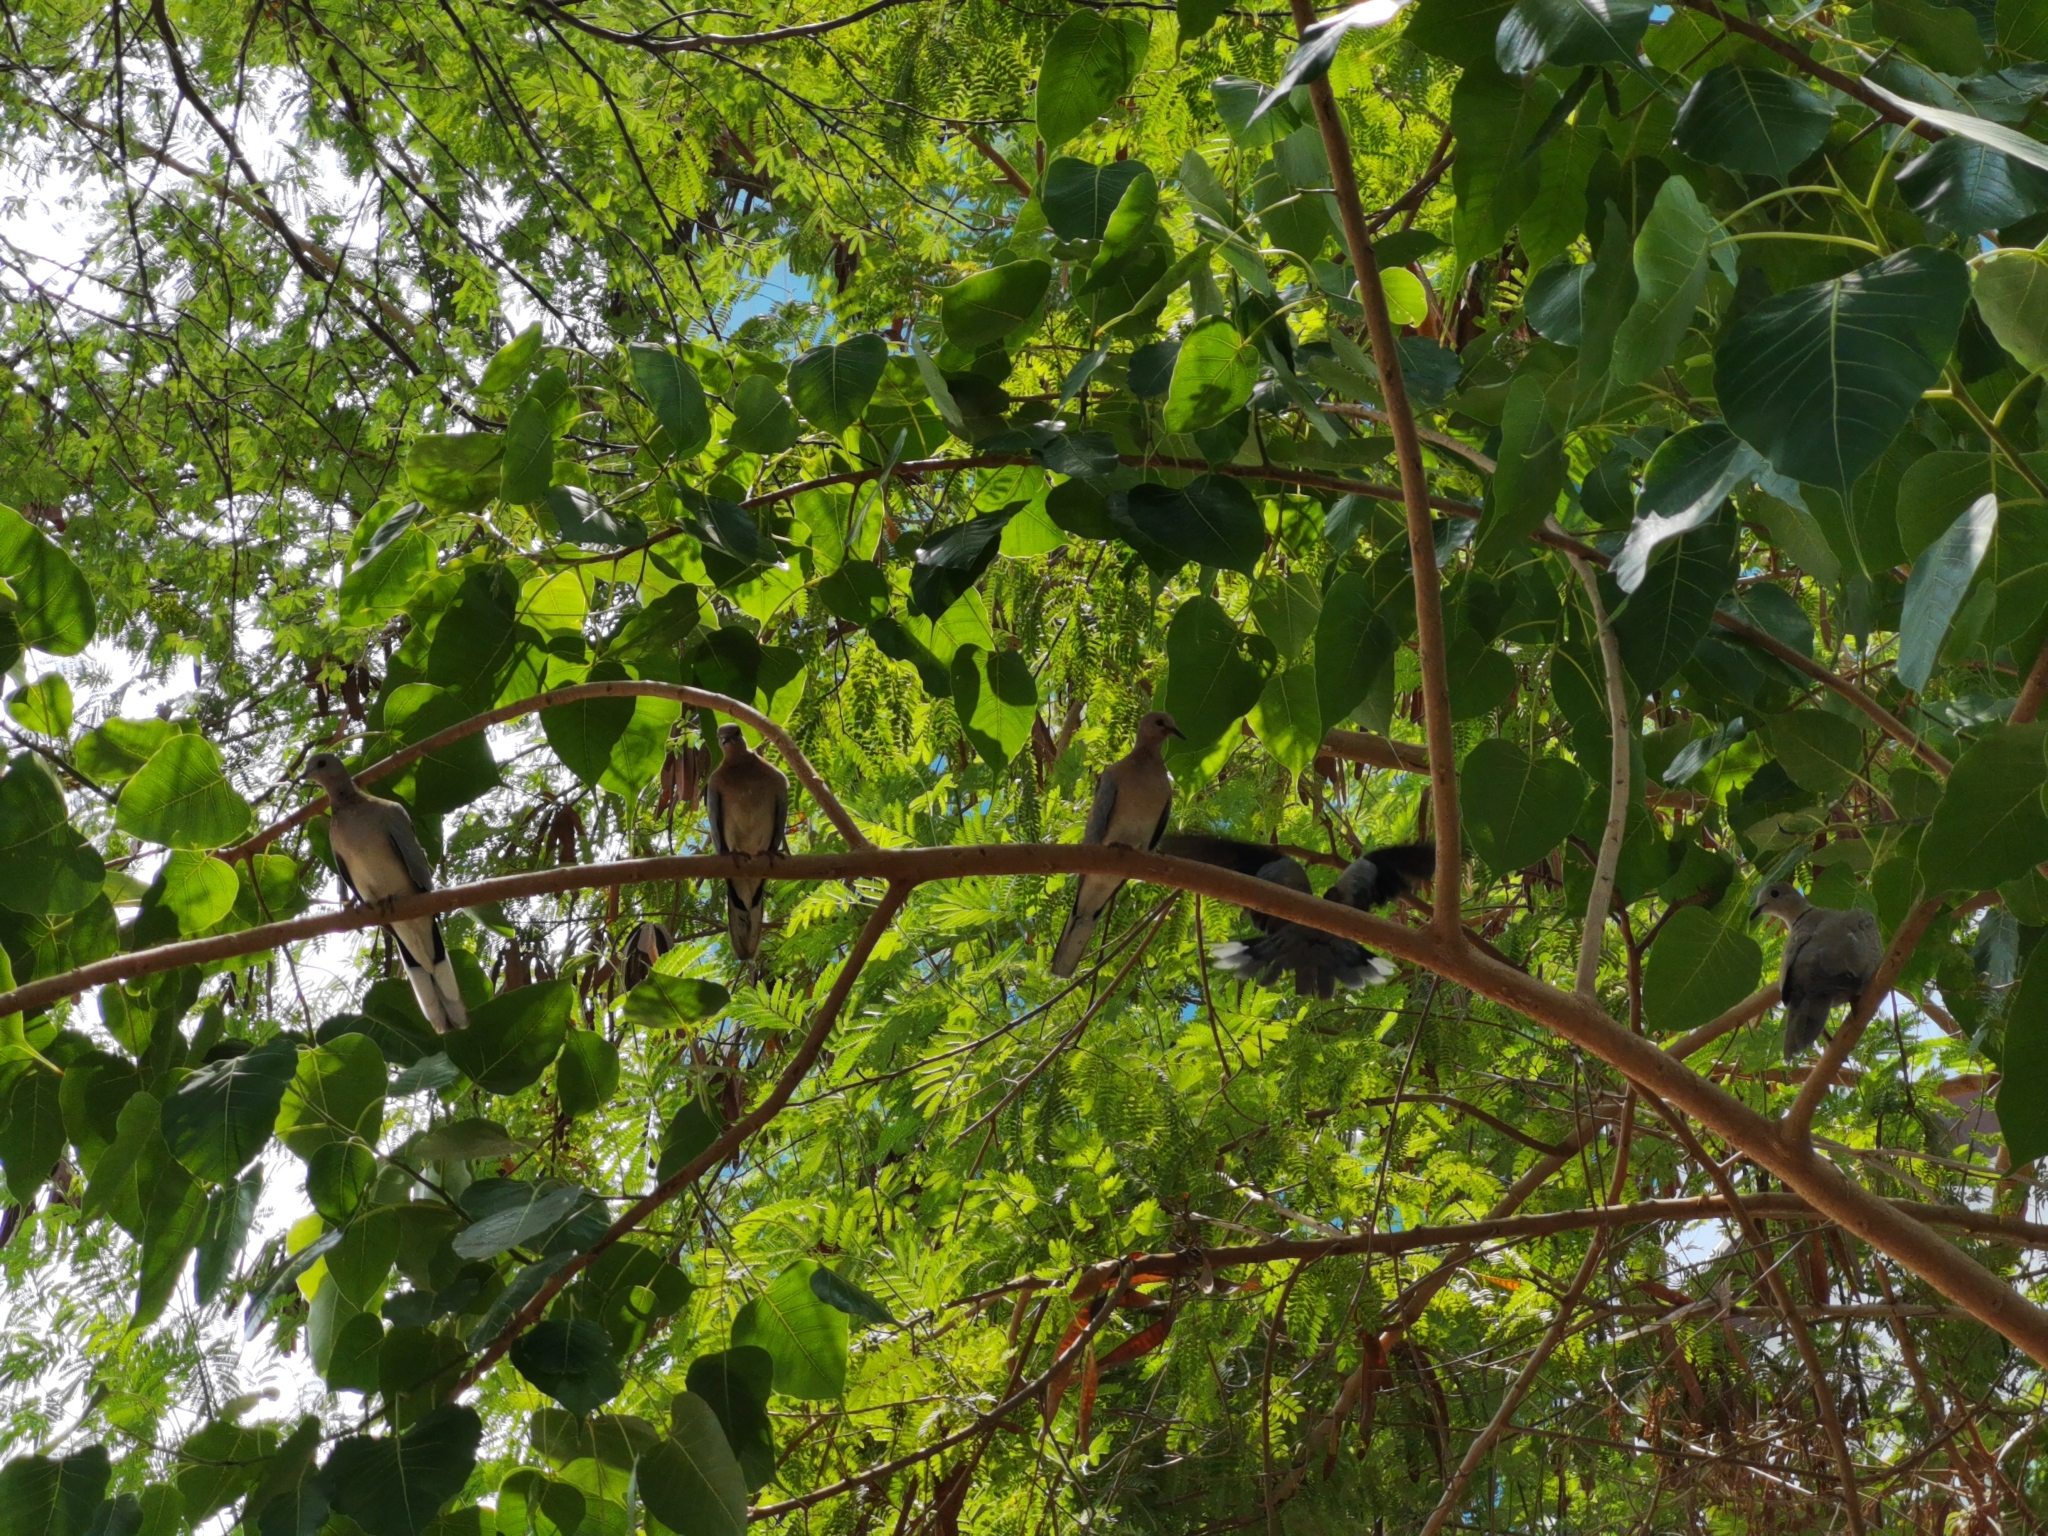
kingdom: Animalia
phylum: Chordata
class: Aves
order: Columbiformes
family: Columbidae
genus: Spilopelia
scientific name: Spilopelia senegalensis
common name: Laughing dove
